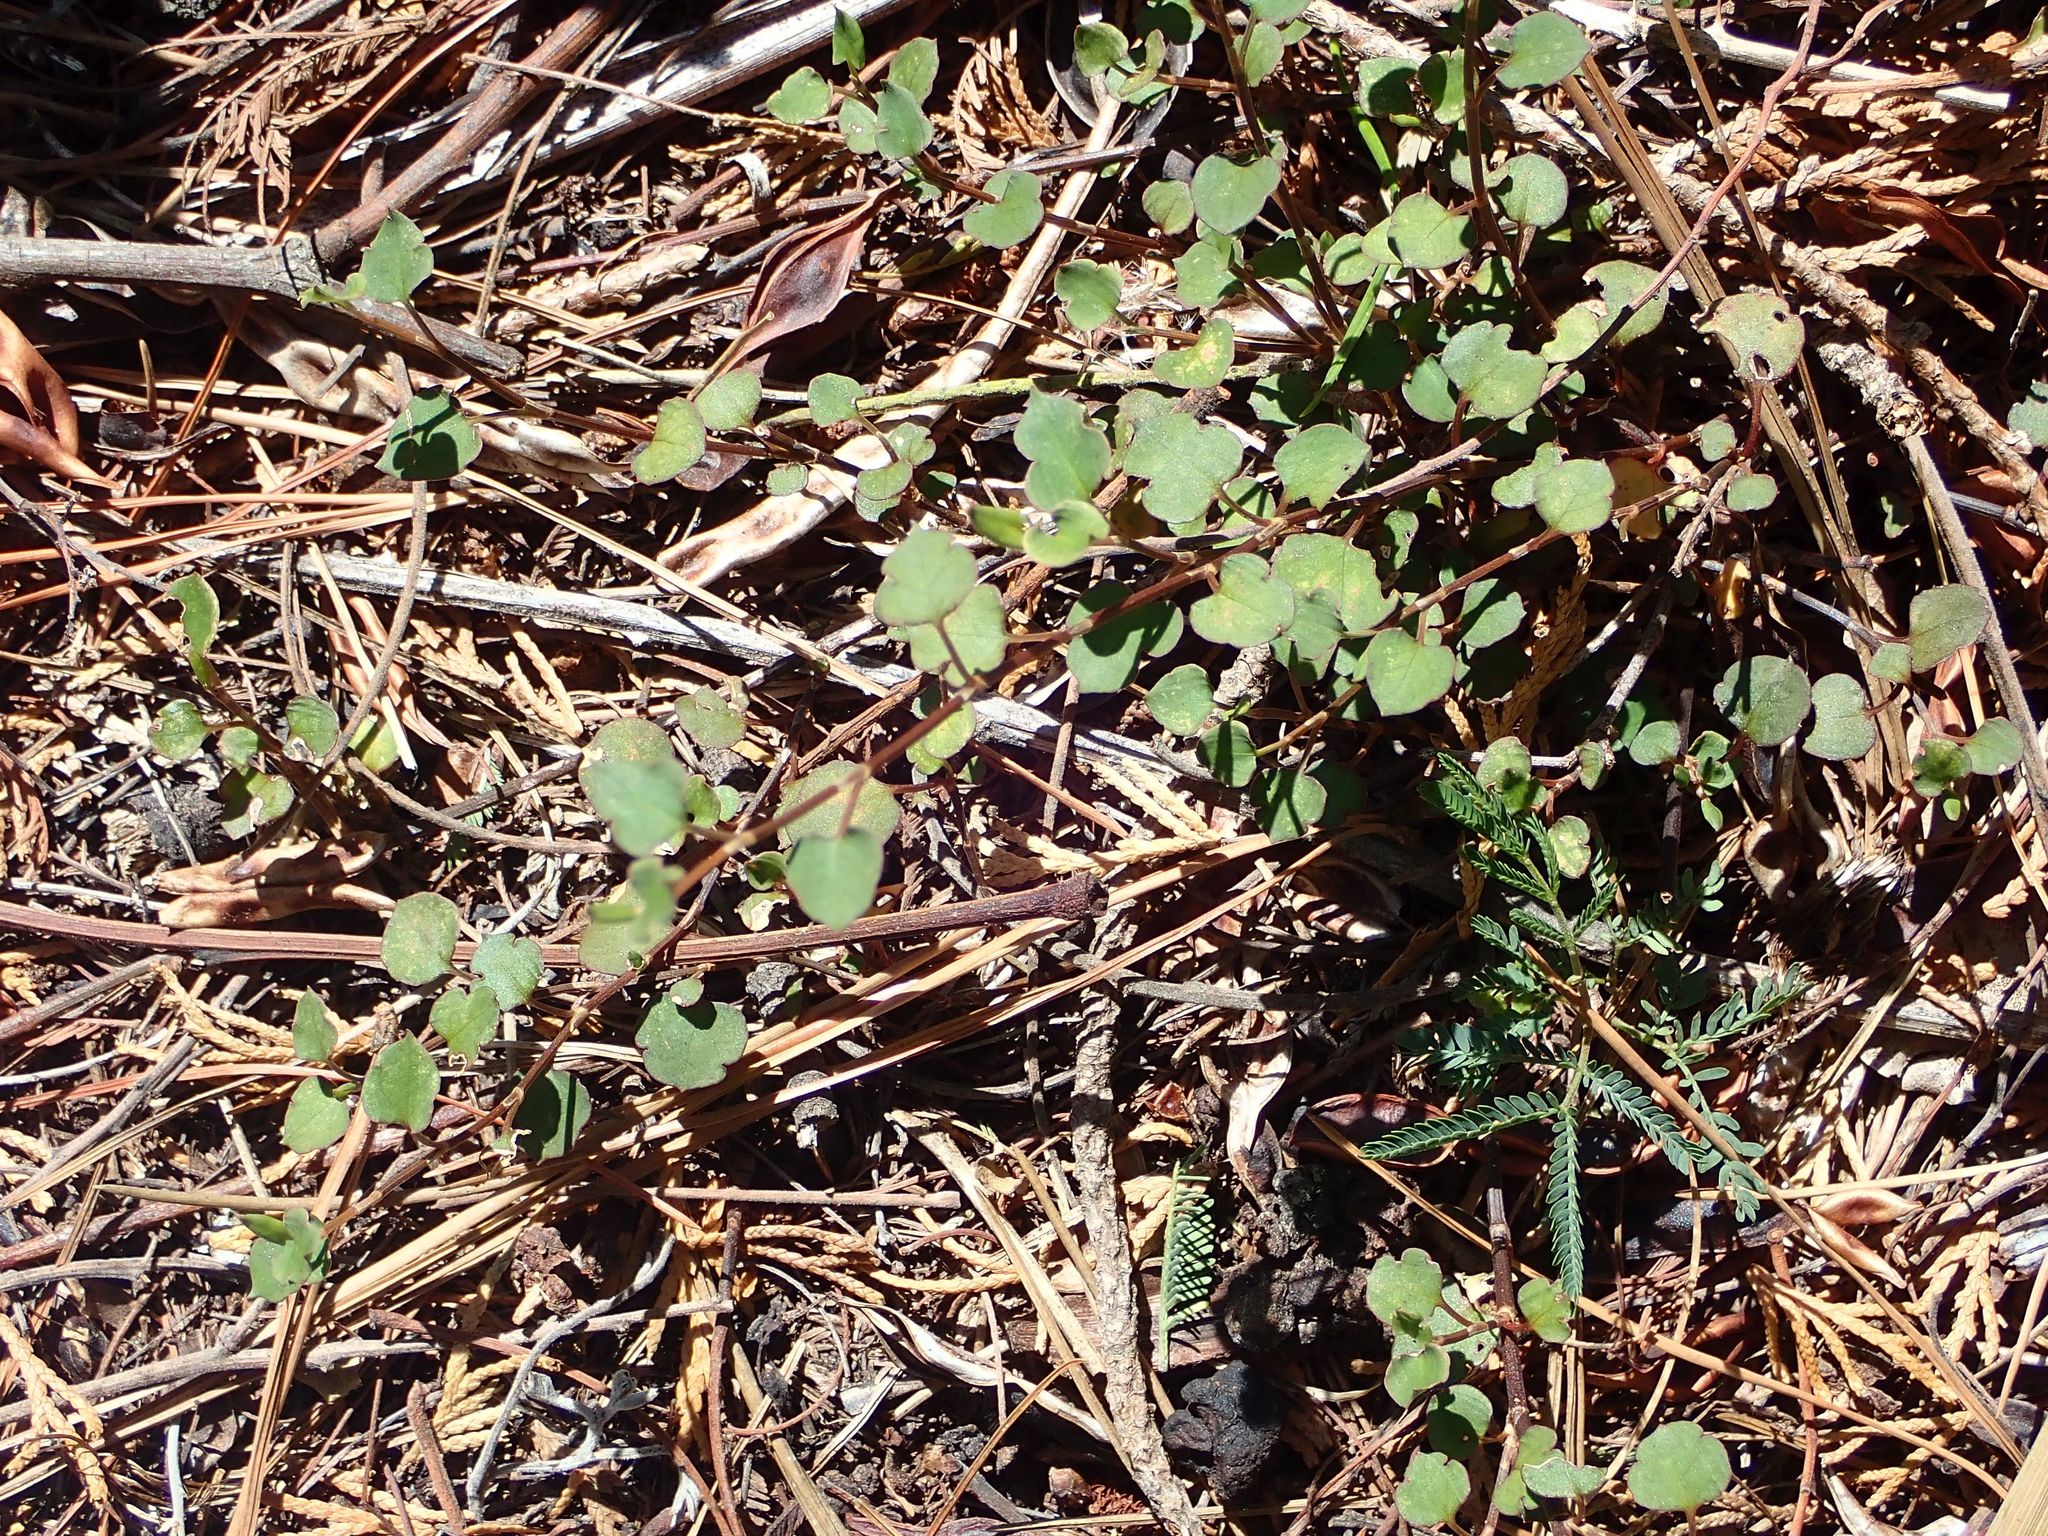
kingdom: Plantae
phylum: Tracheophyta
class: Magnoliopsida
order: Caryophyllales
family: Polygonaceae
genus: Muehlenbeckia
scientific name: Muehlenbeckia australis
